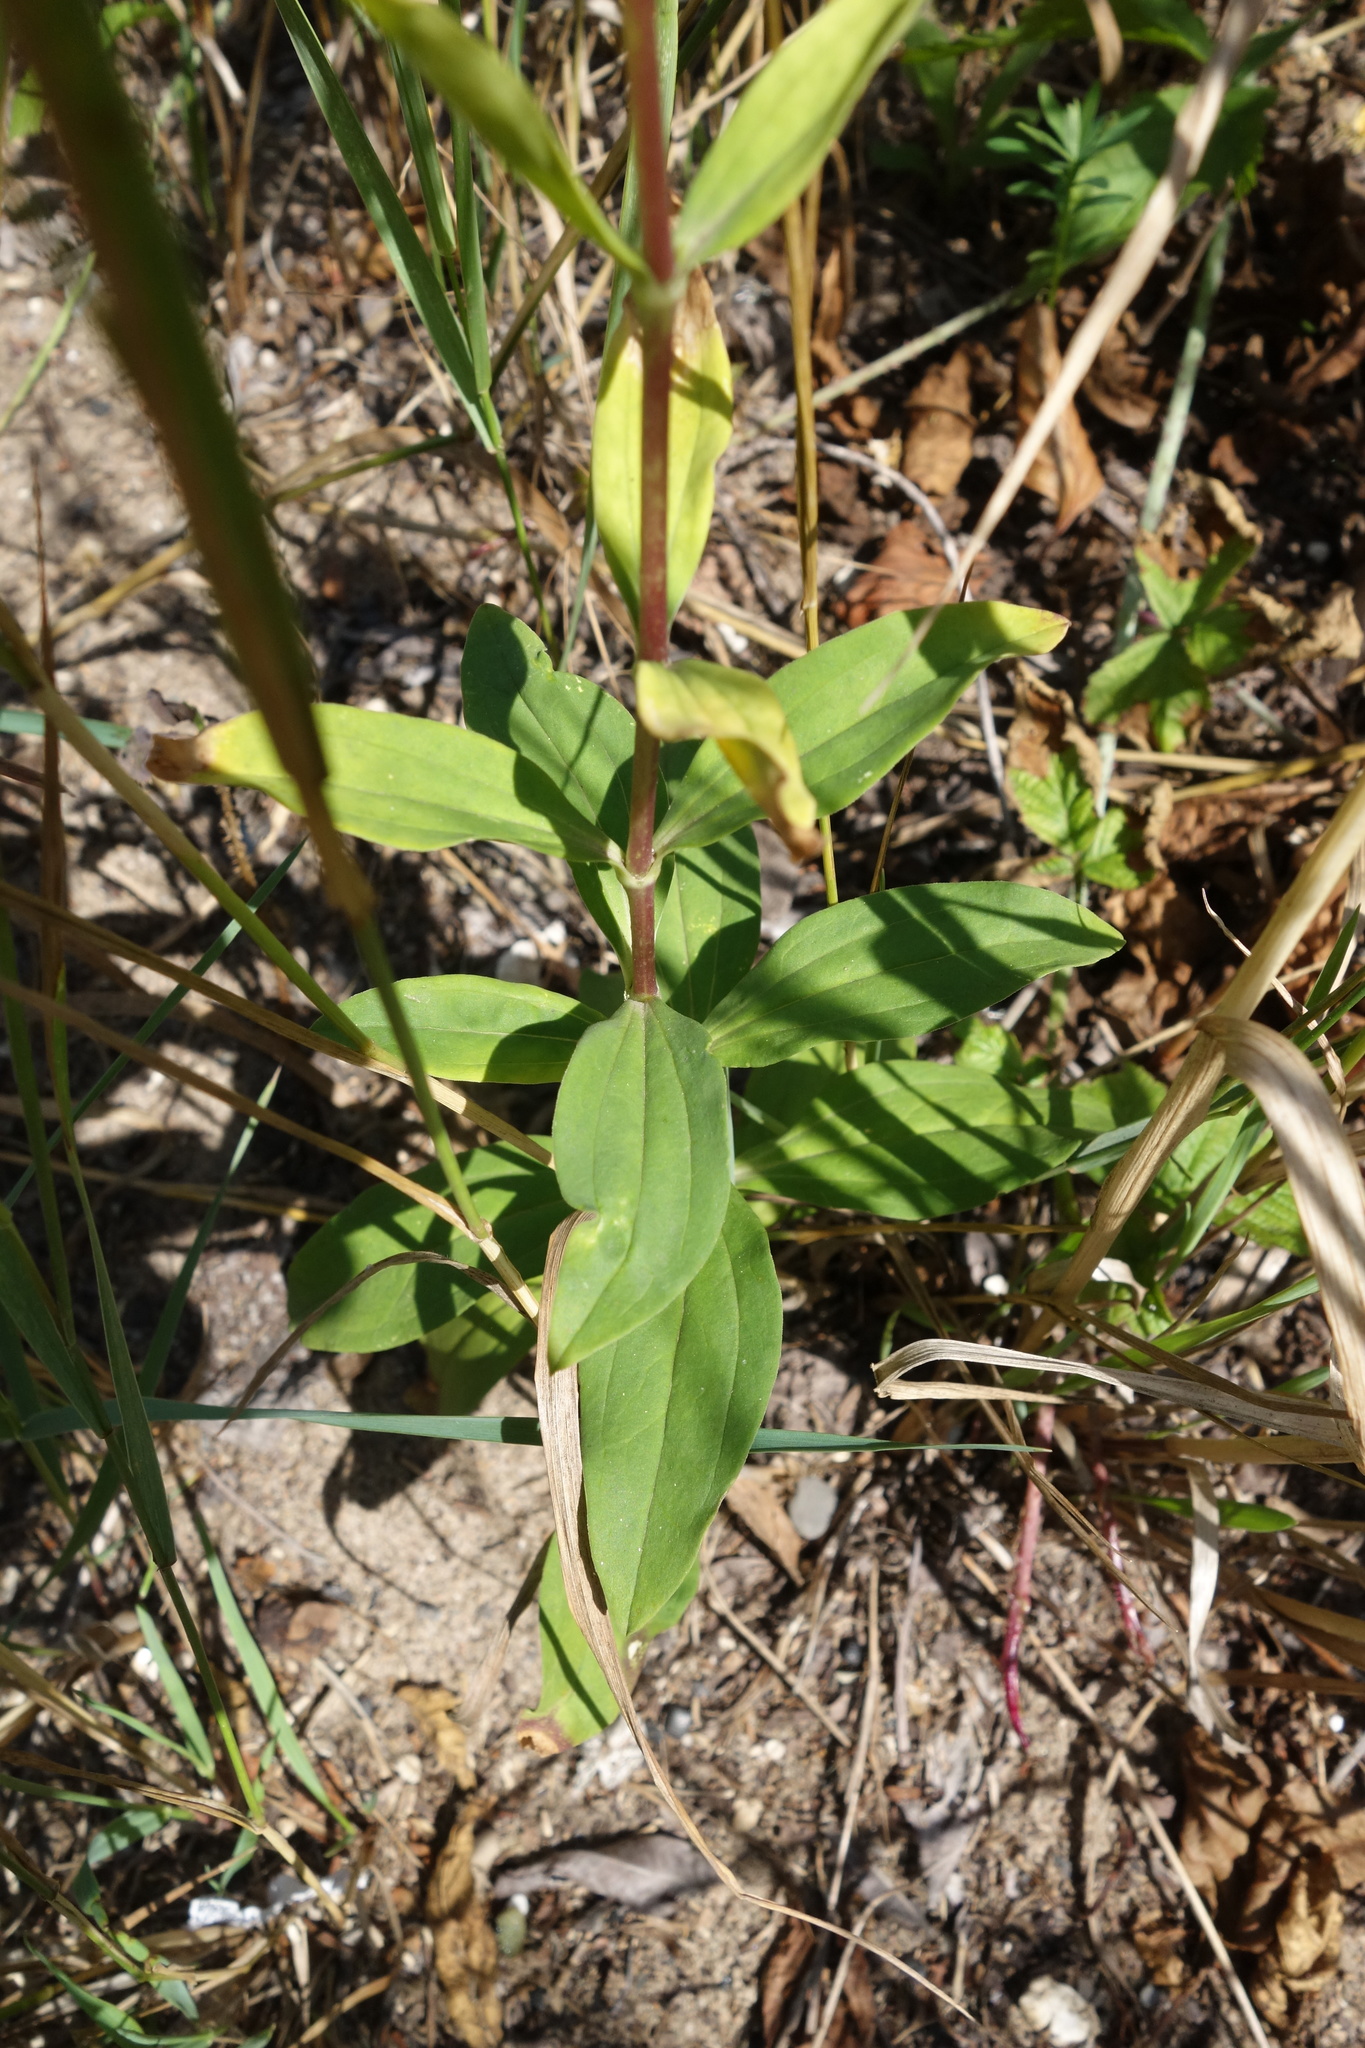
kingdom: Plantae
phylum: Tracheophyta
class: Magnoliopsida
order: Caryophyllales
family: Caryophyllaceae
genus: Saponaria
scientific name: Saponaria officinalis
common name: Soapwort
